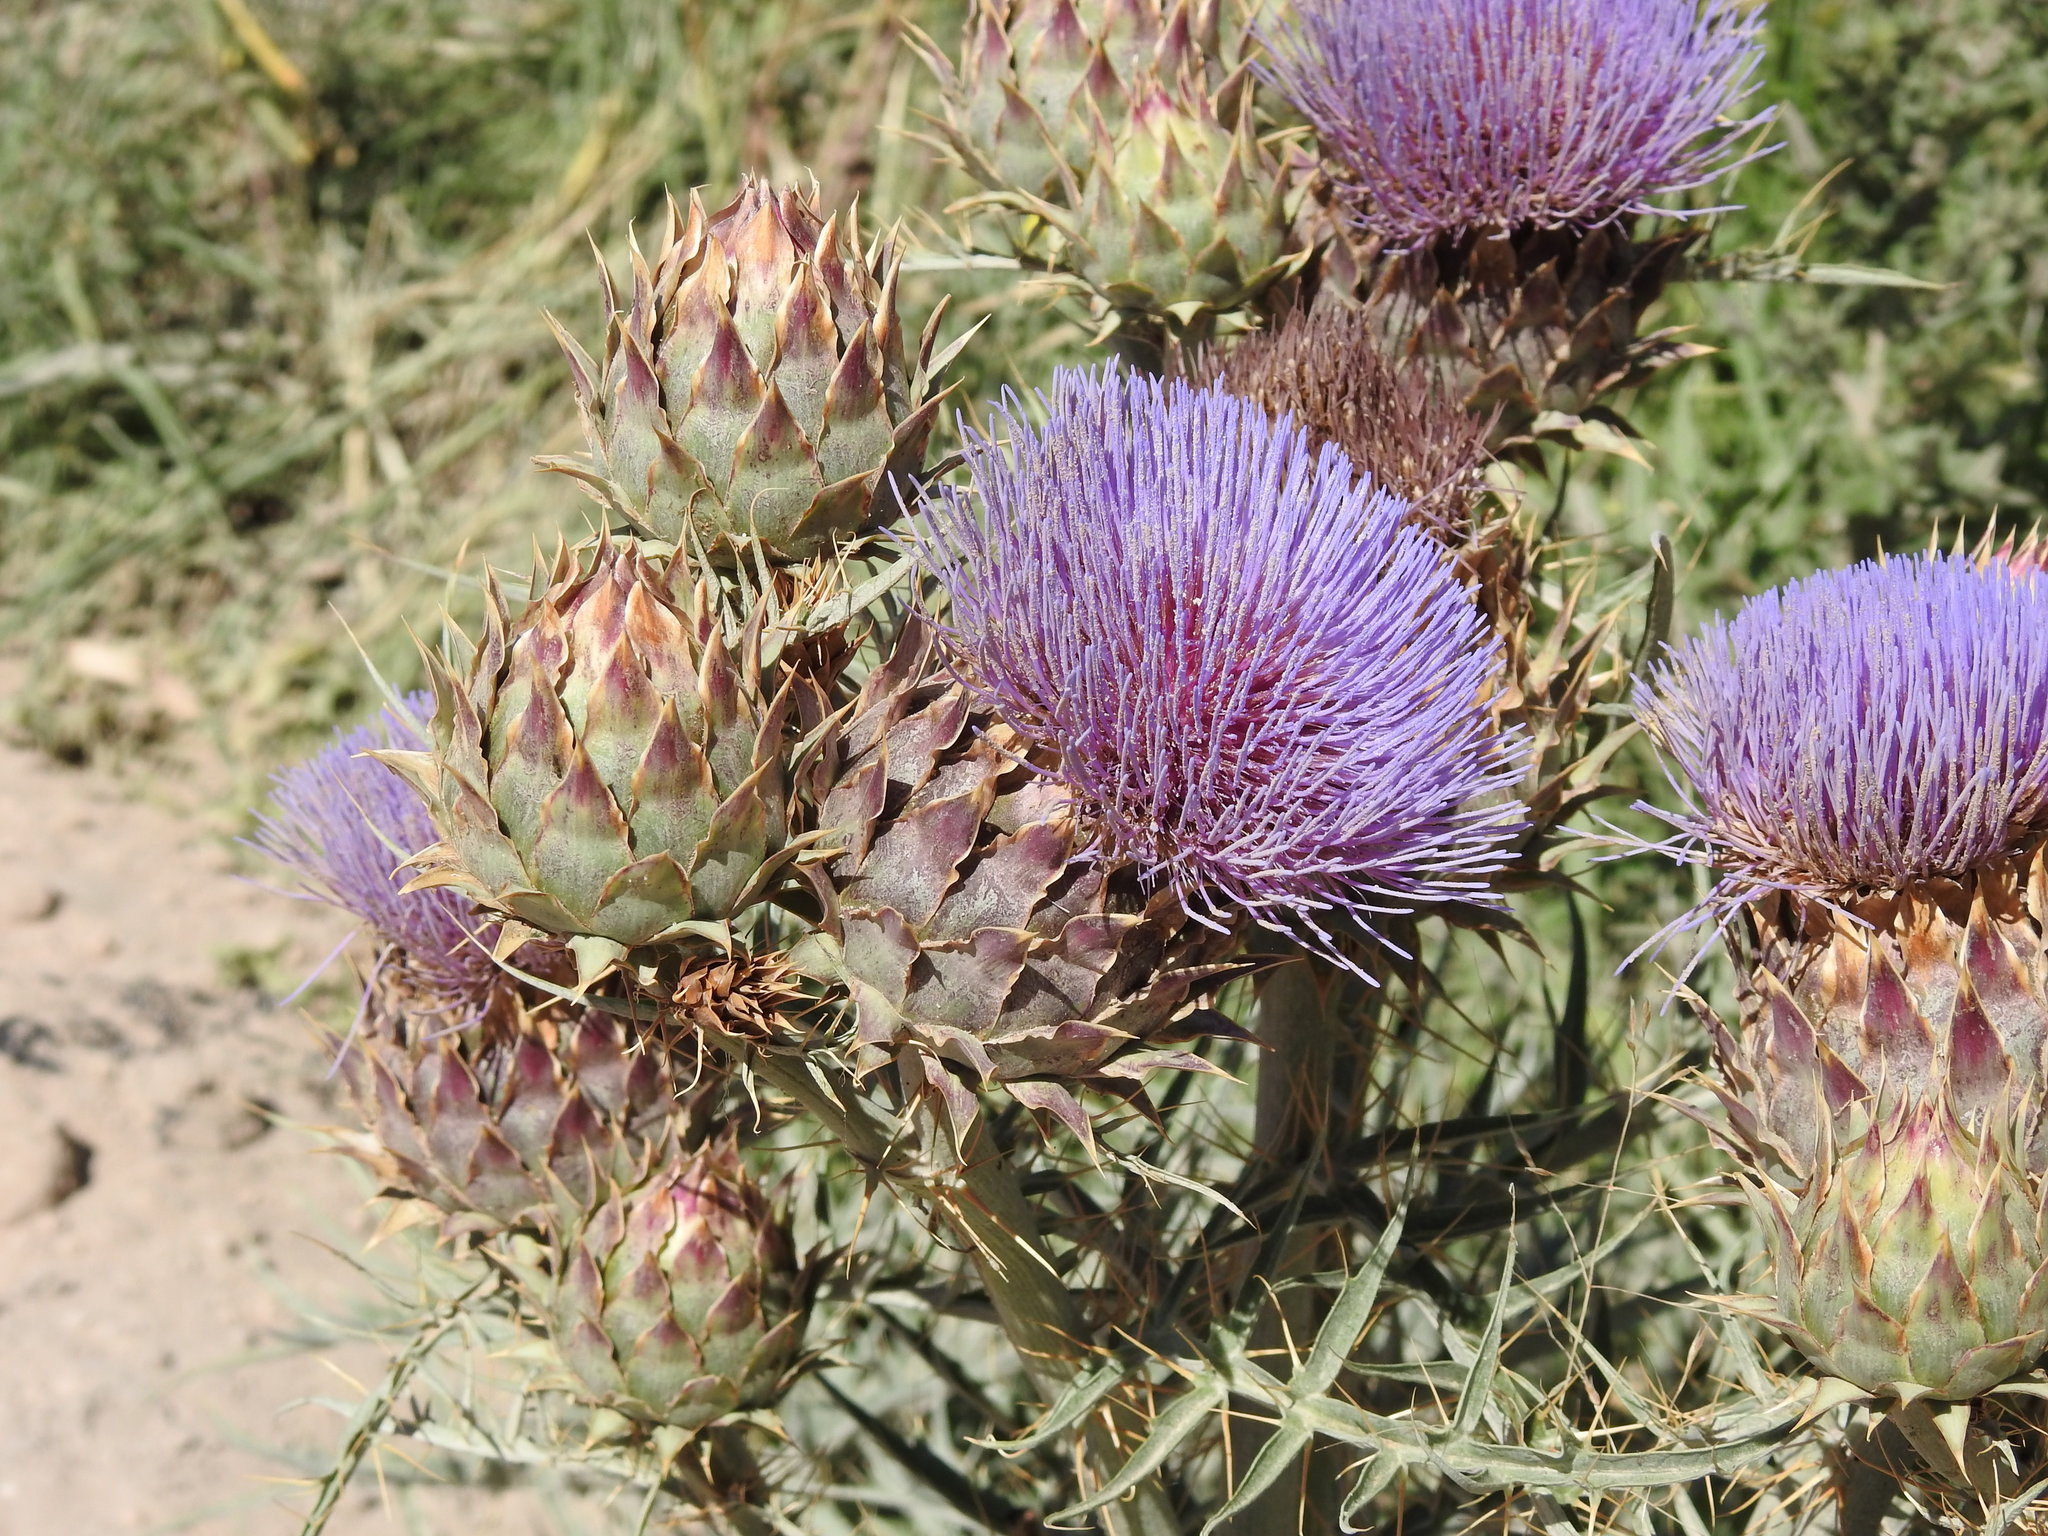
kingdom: Plantae
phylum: Tracheophyta
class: Magnoliopsida
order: Asterales
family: Asteraceae
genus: Cynara
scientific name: Cynara cardunculus
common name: Globe artichoke
